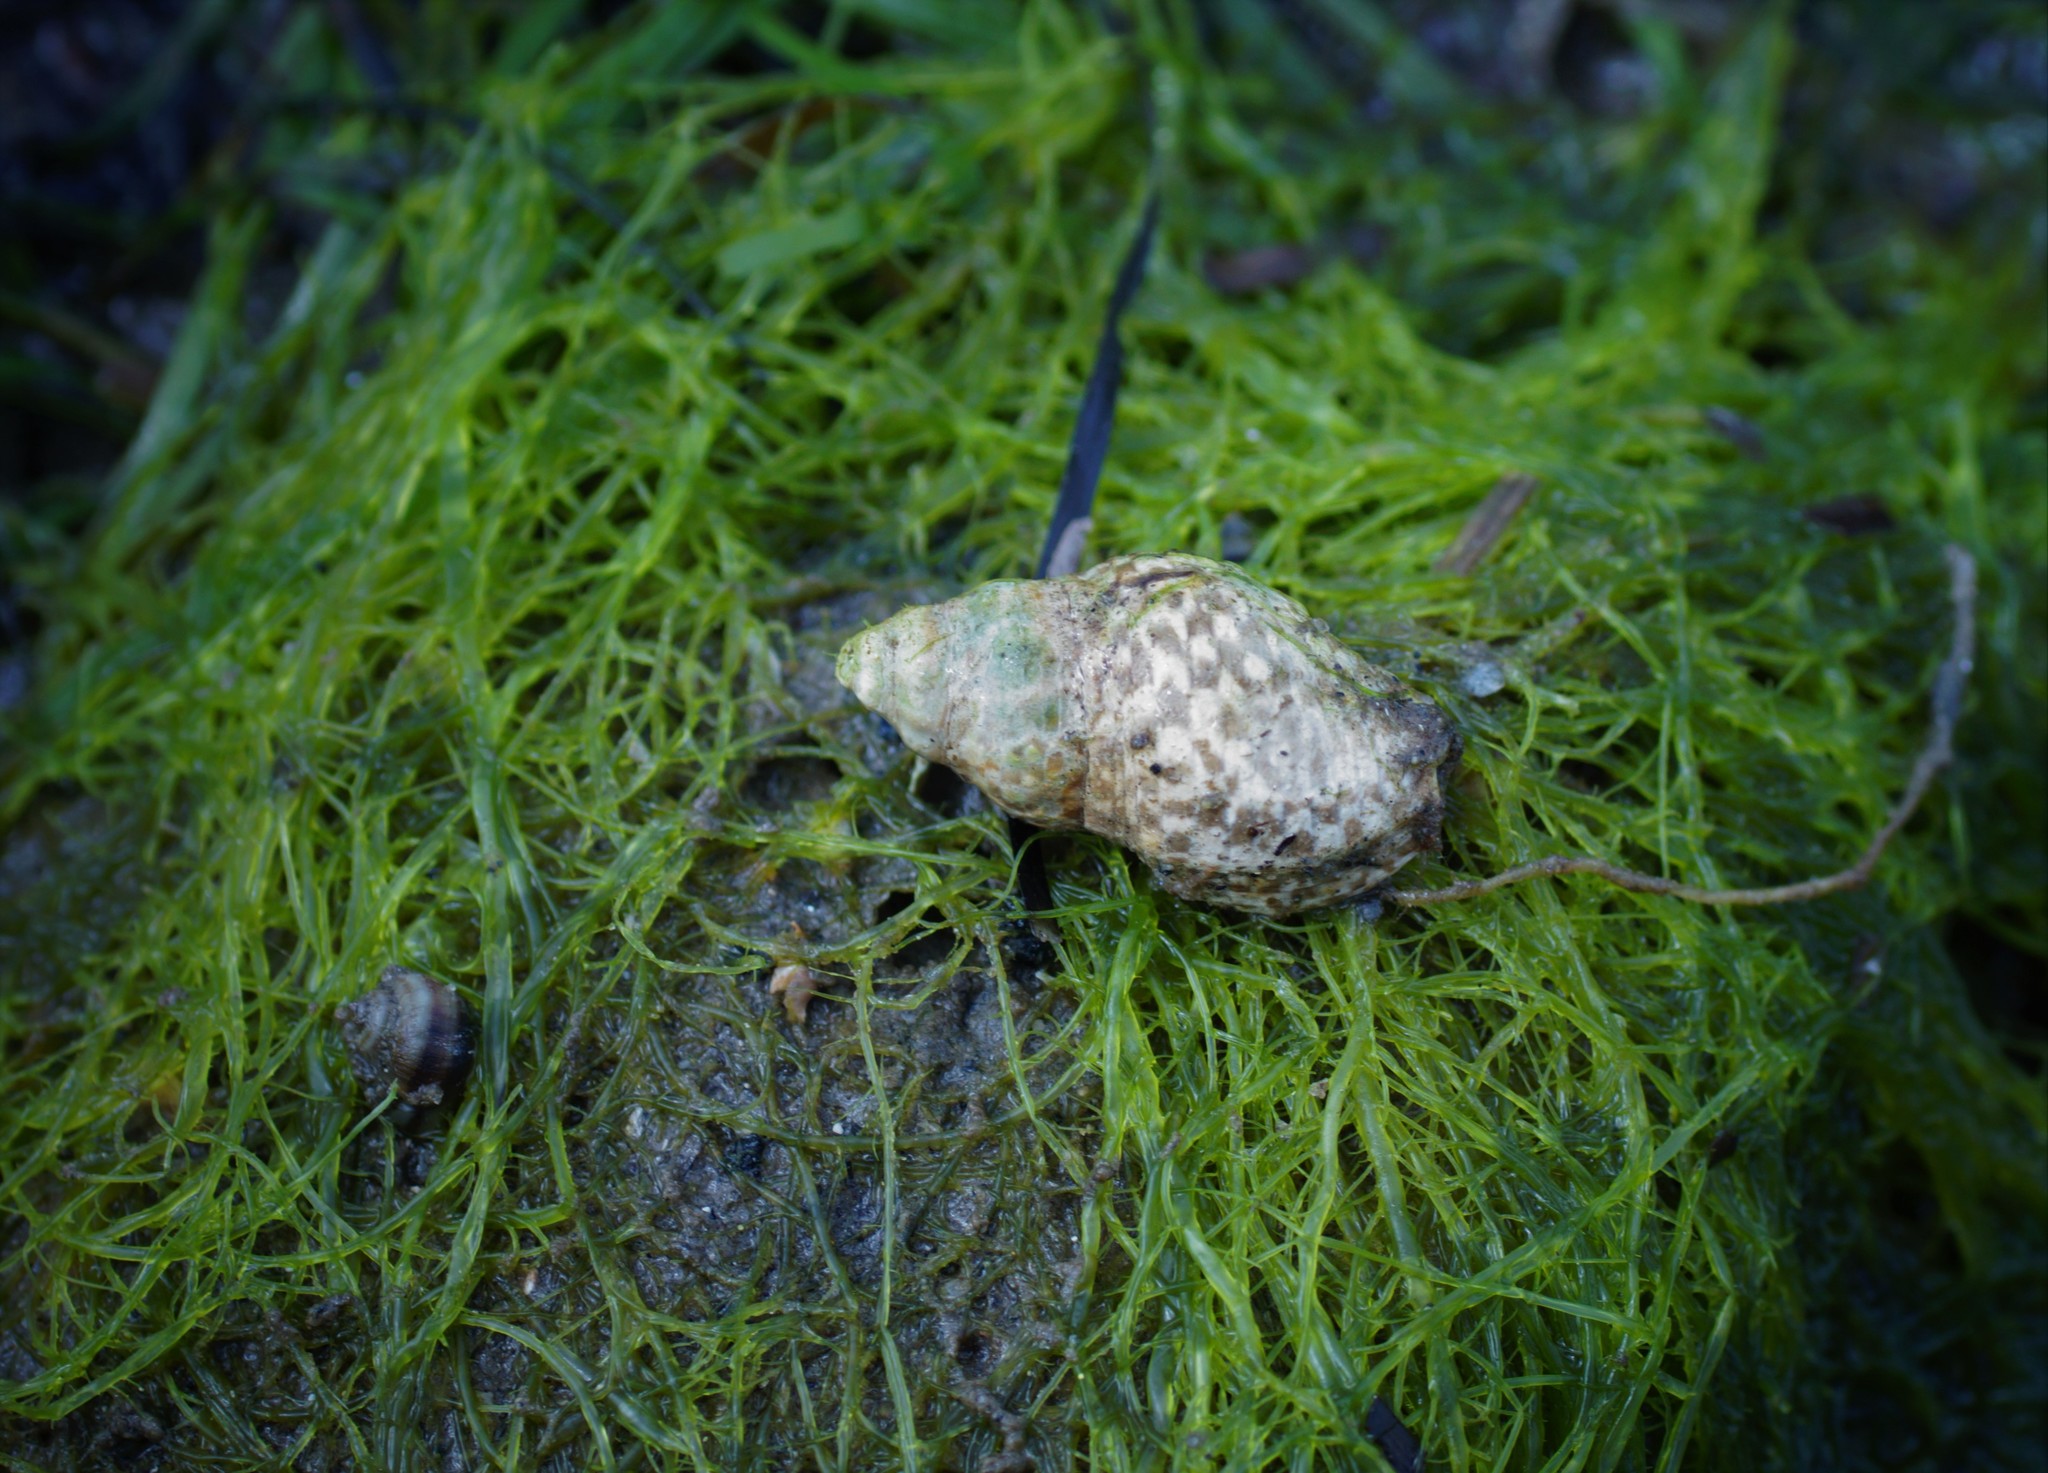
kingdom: Animalia
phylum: Mollusca
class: Gastropoda
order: Neogastropoda
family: Cominellidae
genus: Cominella
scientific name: Cominella lineolata
